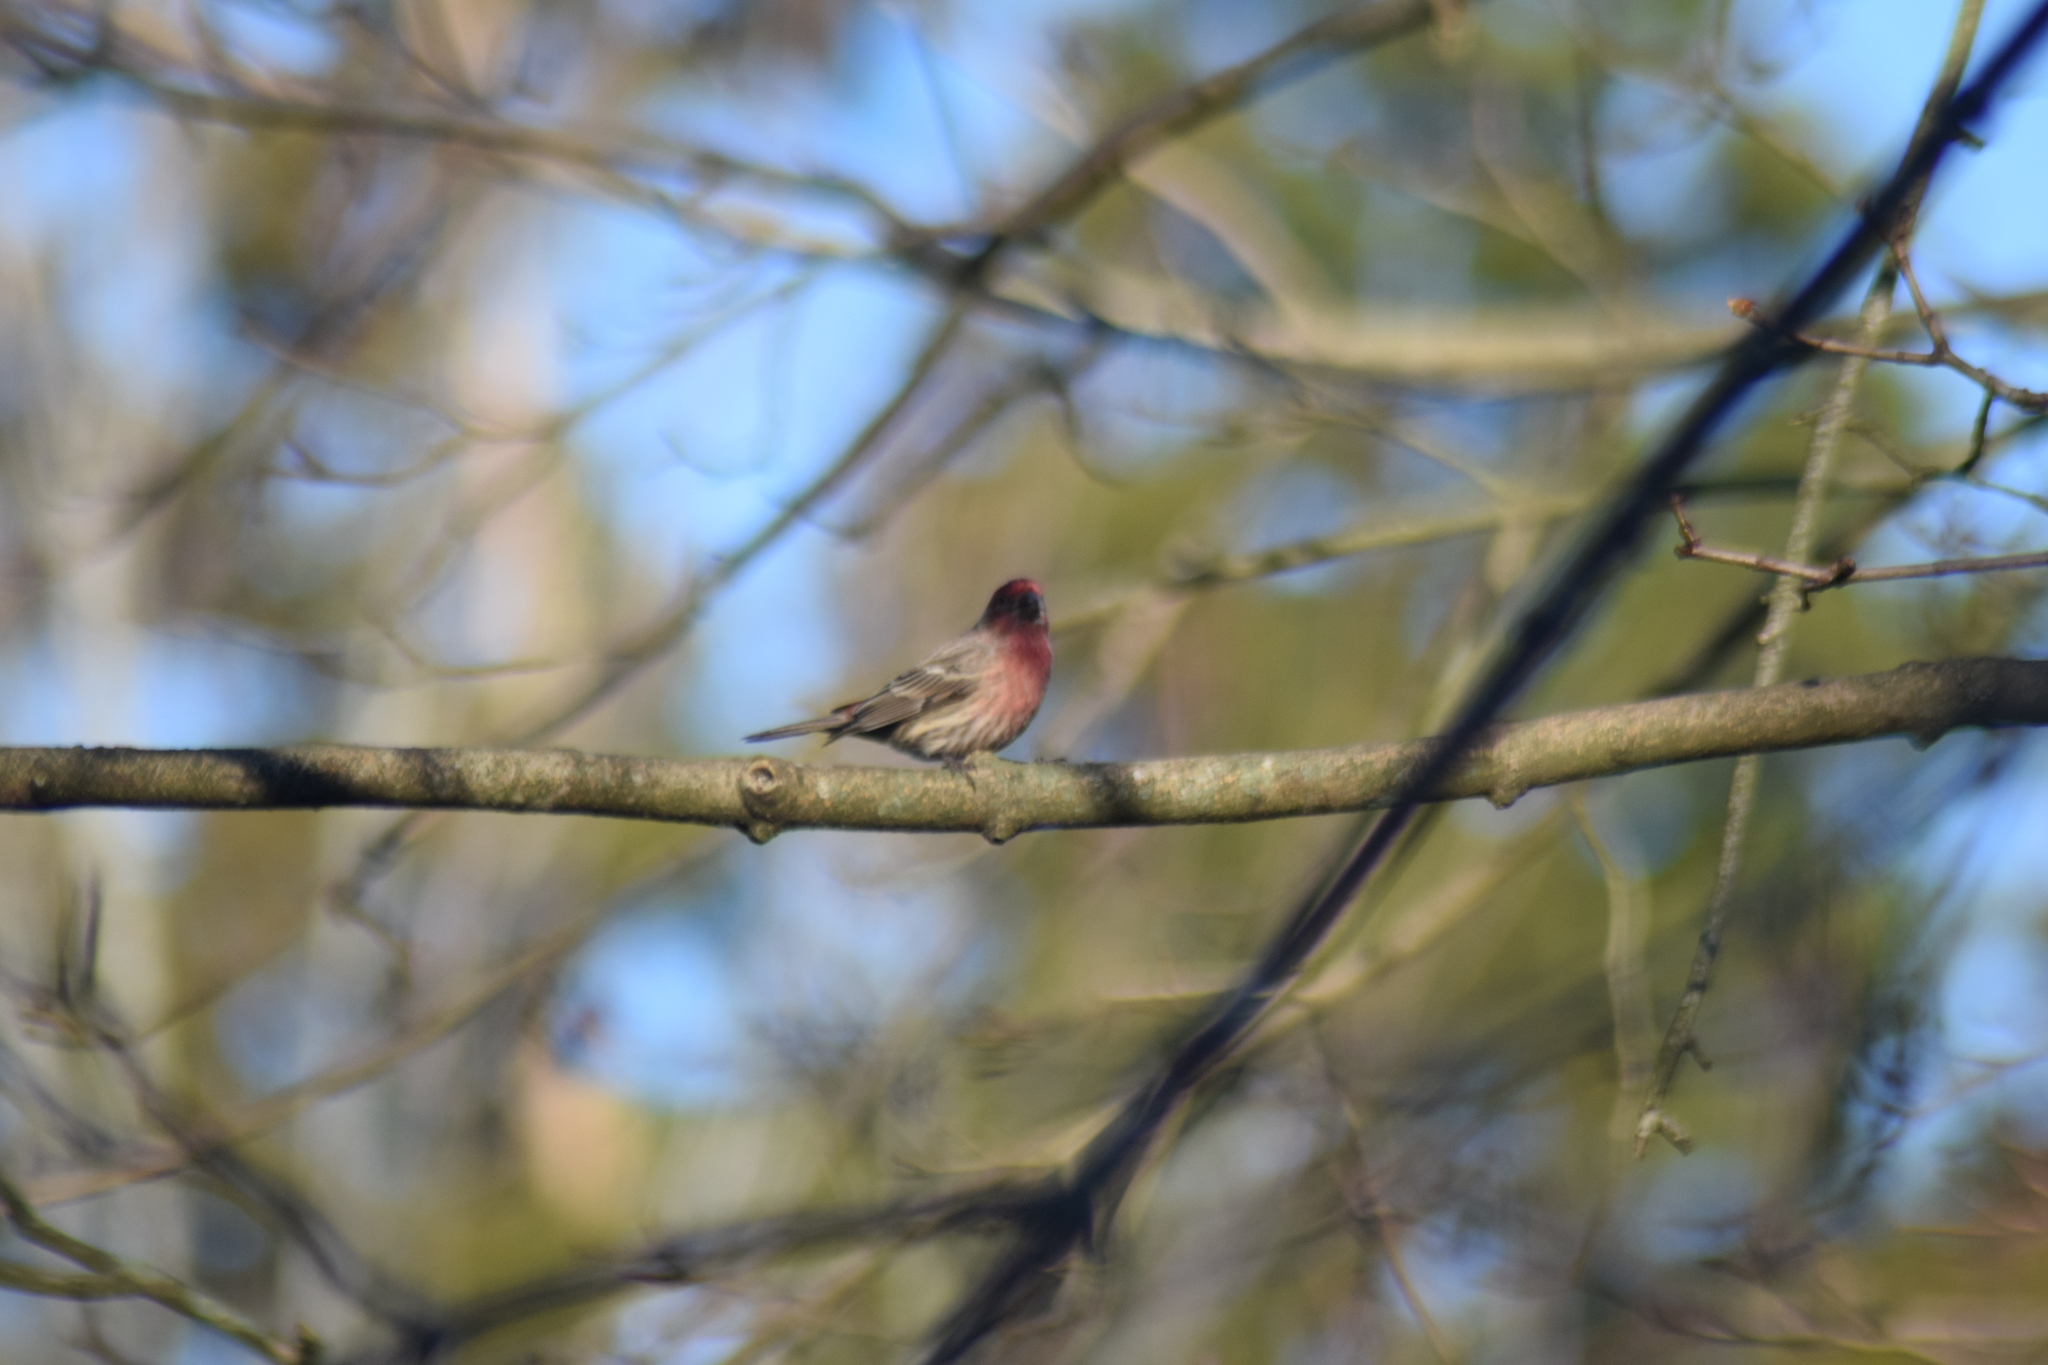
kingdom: Animalia
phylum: Chordata
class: Aves
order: Passeriformes
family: Fringillidae
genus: Haemorhous
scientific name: Haemorhous mexicanus
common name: House finch
